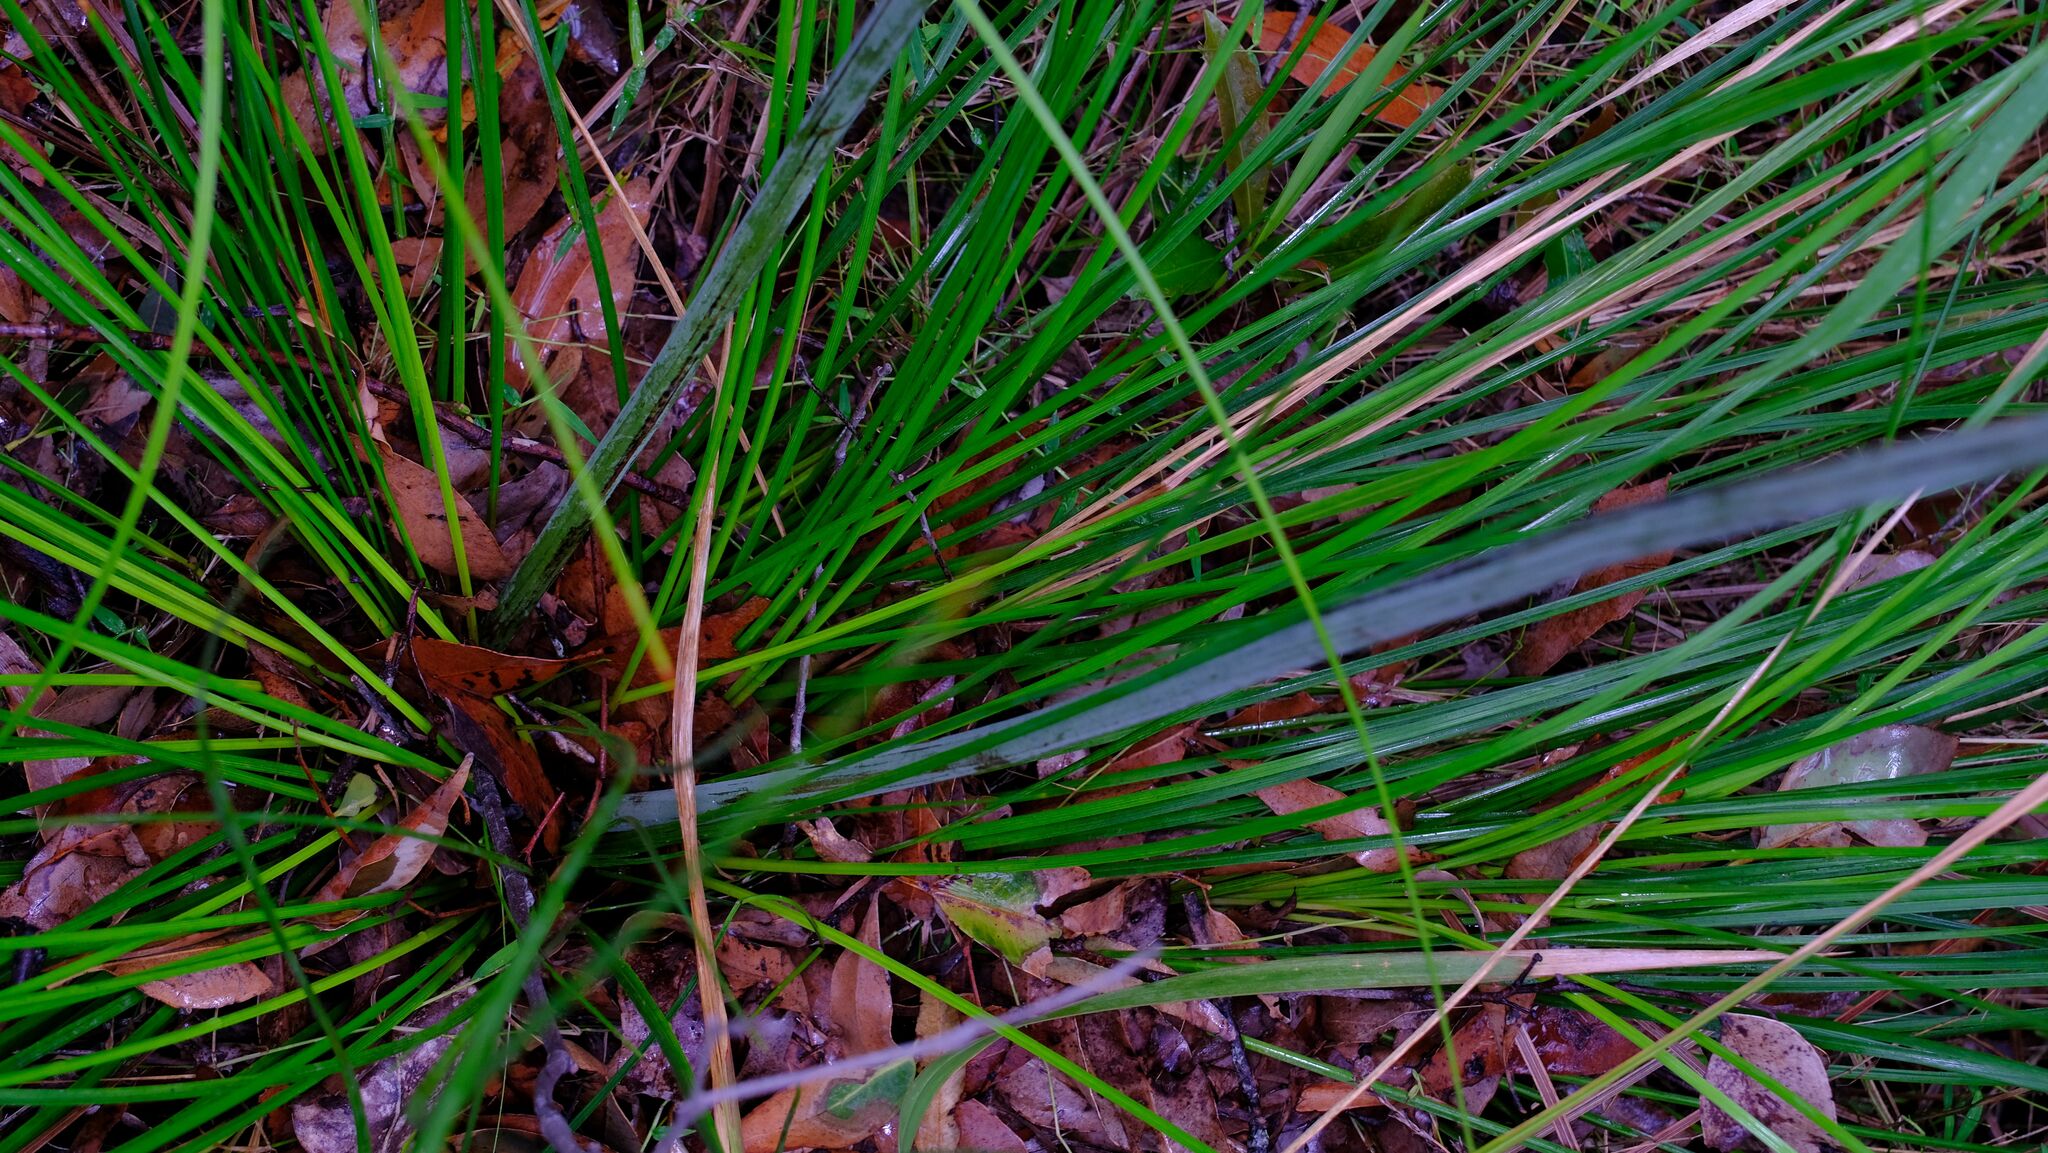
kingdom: Plantae
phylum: Tracheophyta
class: Liliopsida
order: Asparagales
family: Asphodelaceae
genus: Xanthorrhoea
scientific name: Xanthorrhoea macronema
